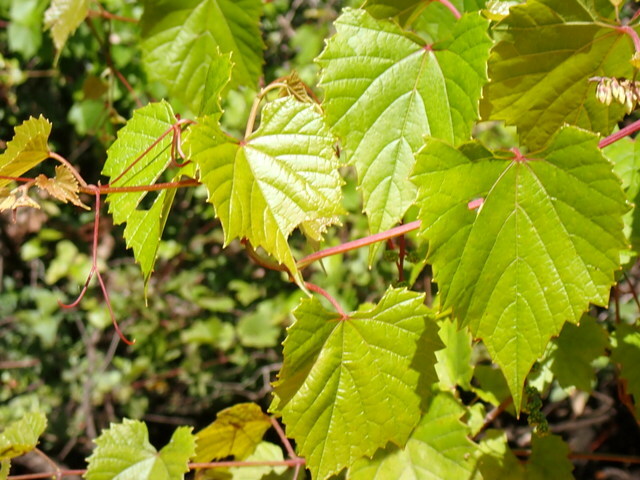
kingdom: Plantae
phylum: Tracheophyta
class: Magnoliopsida
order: Vitales
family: Vitaceae
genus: Vitis
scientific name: Vitis vulpina
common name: Frost grape
